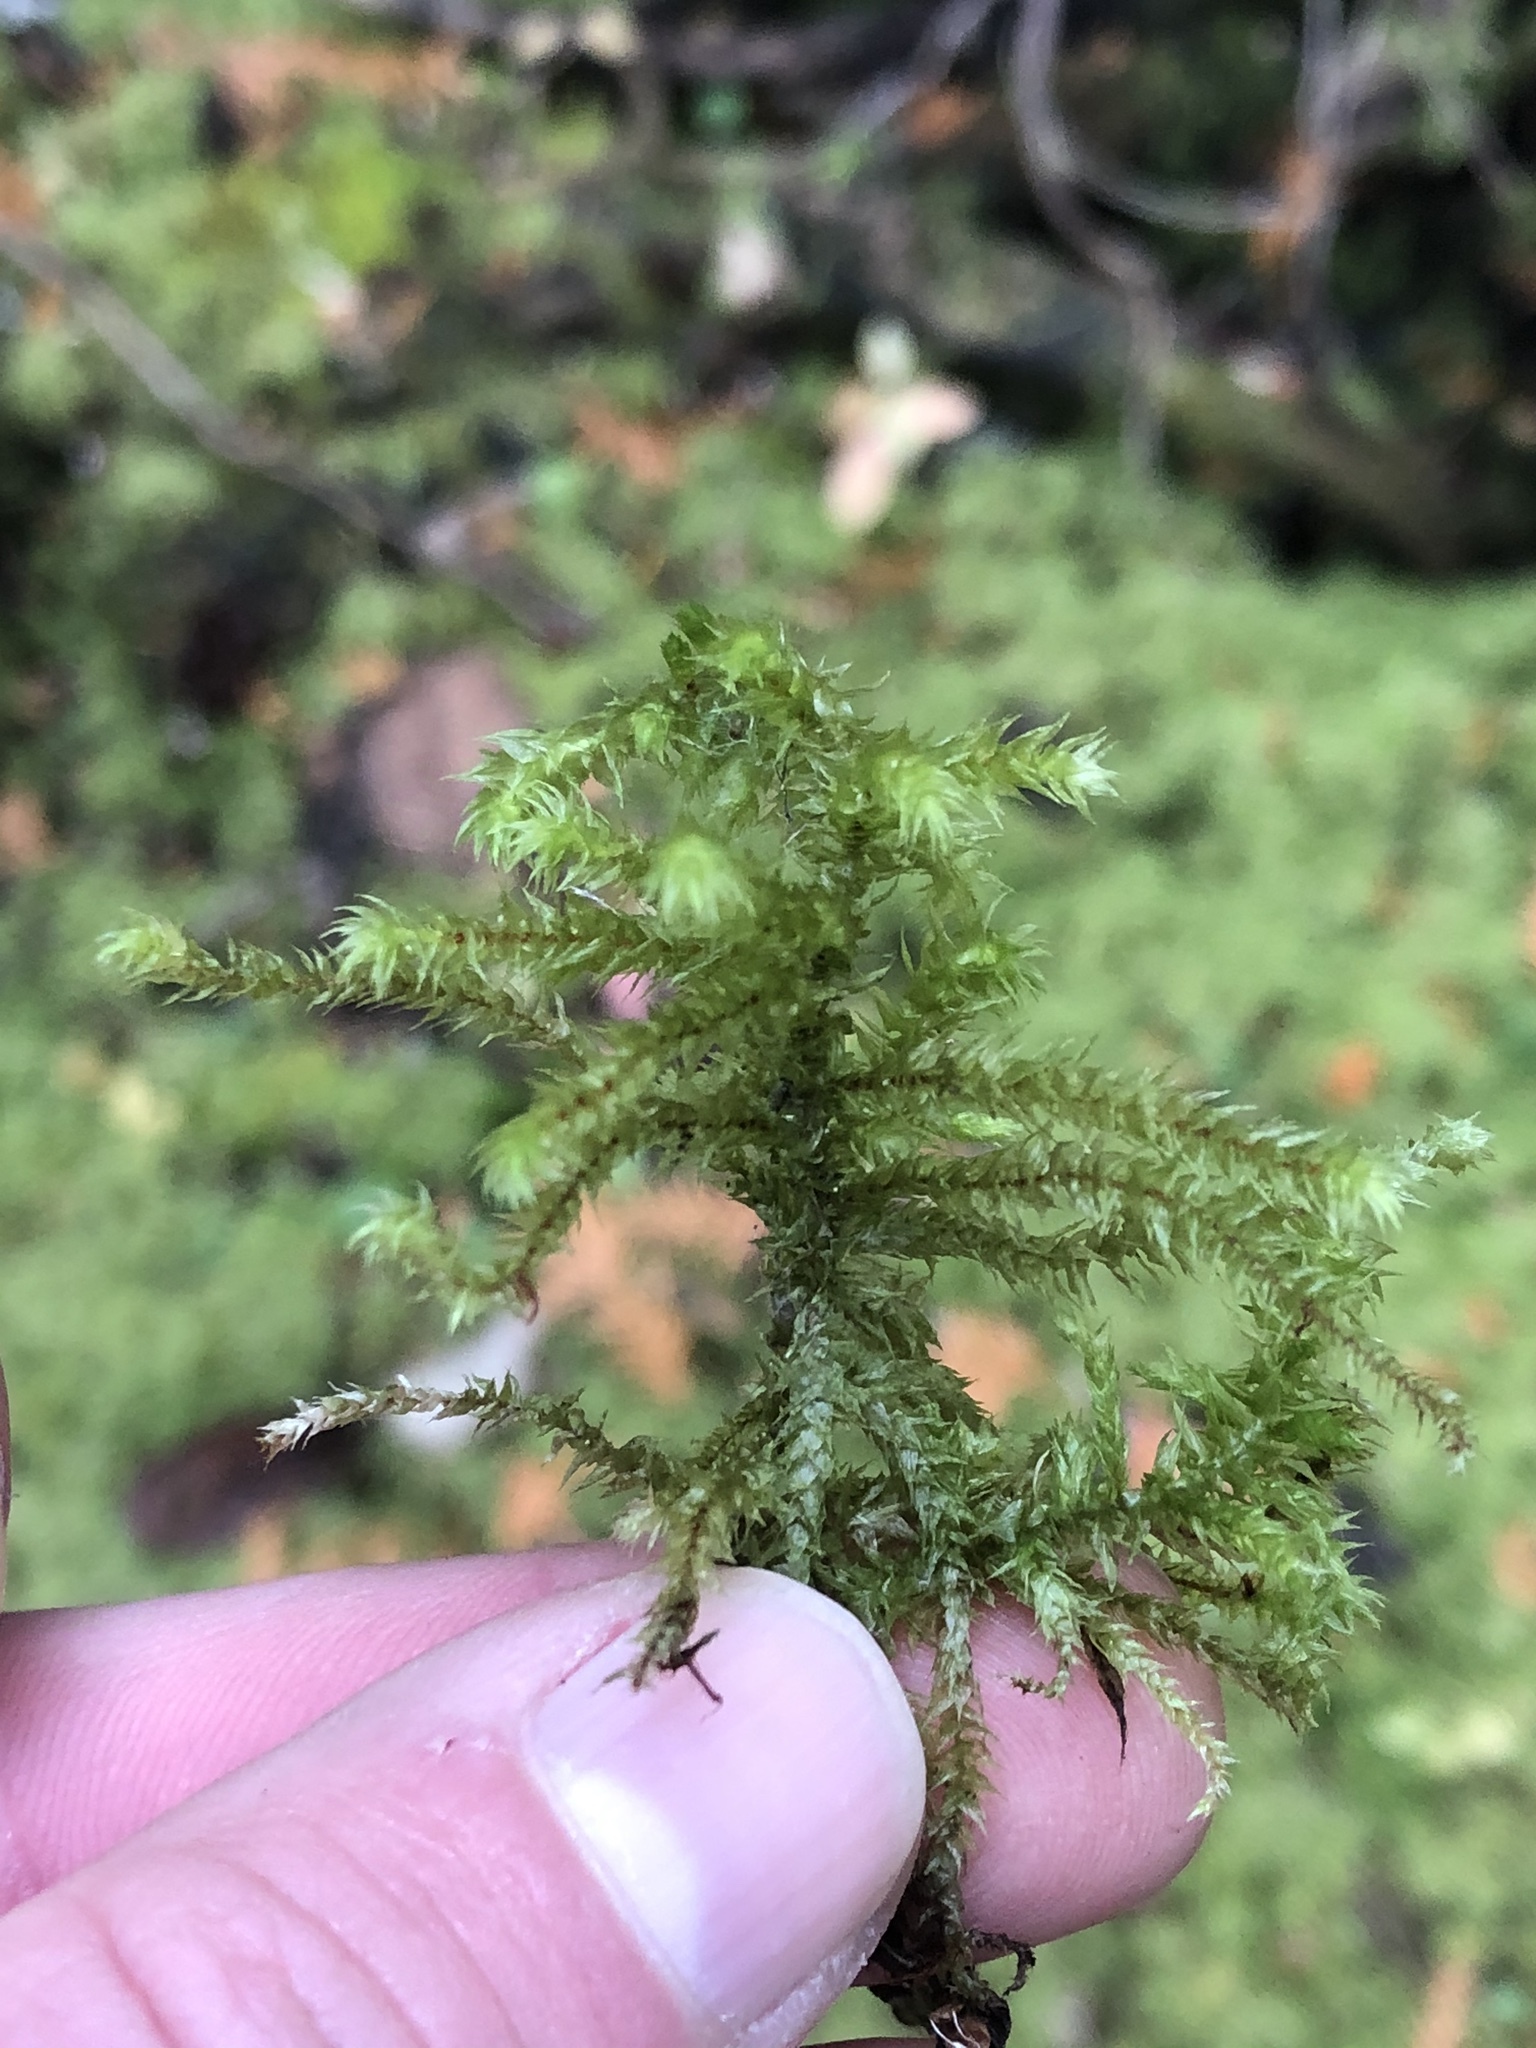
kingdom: Plantae
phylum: Bryophyta
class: Bryopsida
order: Hypnales
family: Hylocomiaceae
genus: Hylocomiadelphus
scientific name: Hylocomiadelphus triquetrus
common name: Rough goose neck moss
